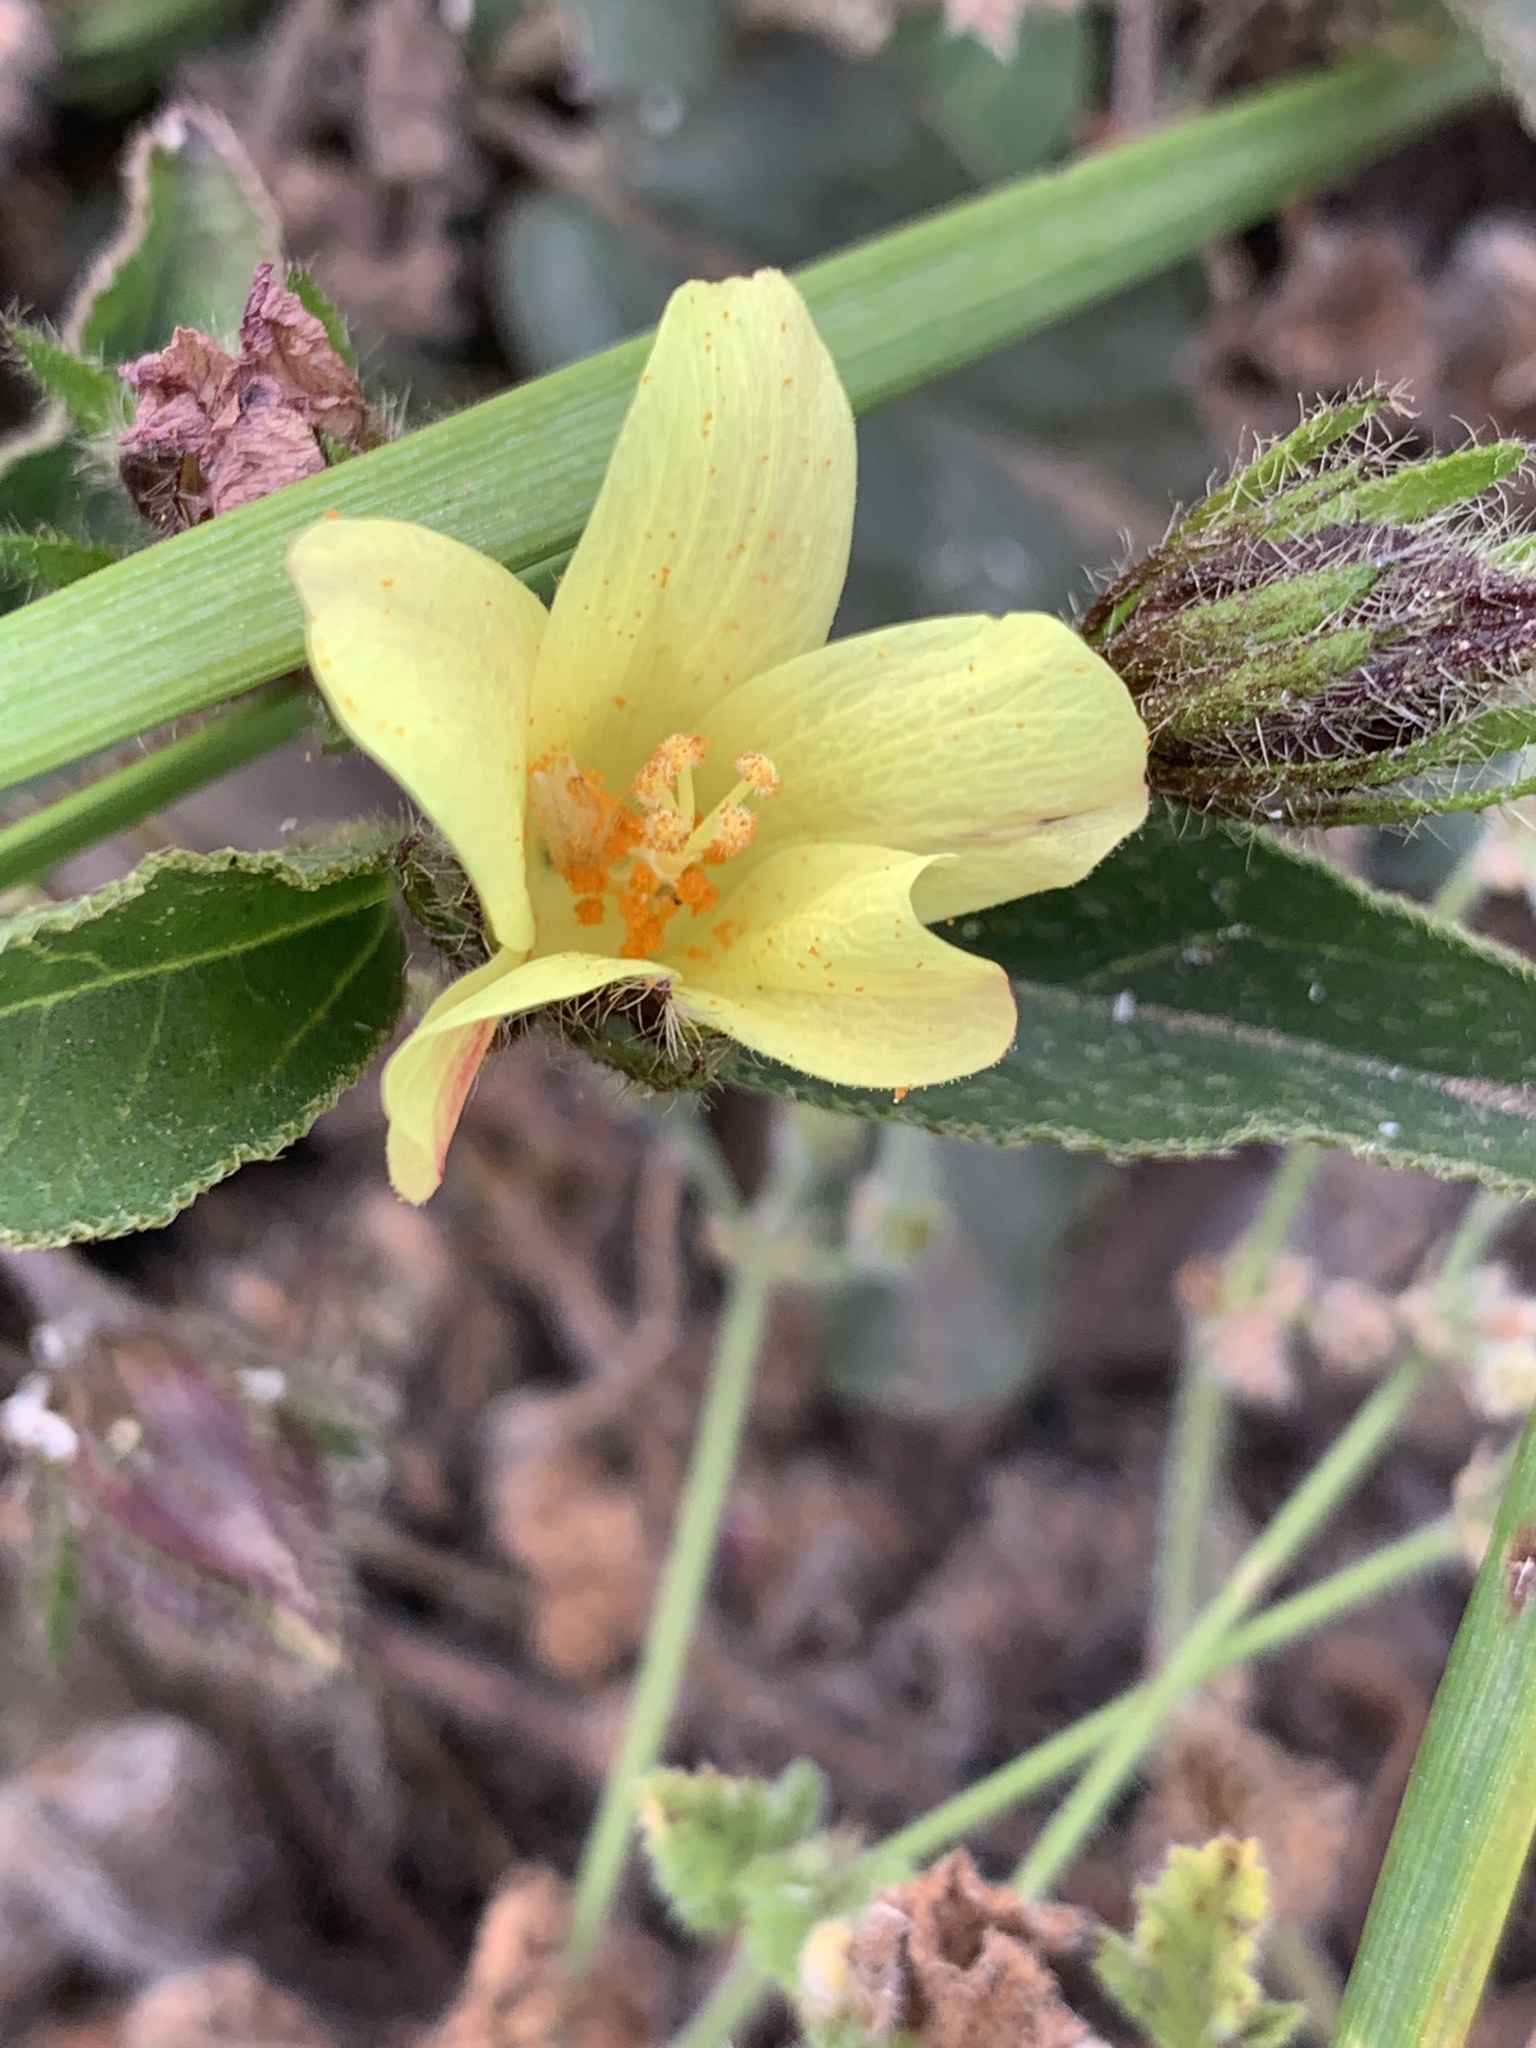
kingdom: Plantae
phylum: Tracheophyta
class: Magnoliopsida
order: Malvales
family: Malvaceae
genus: Hibiscus
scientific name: Hibiscus aethiopicus
